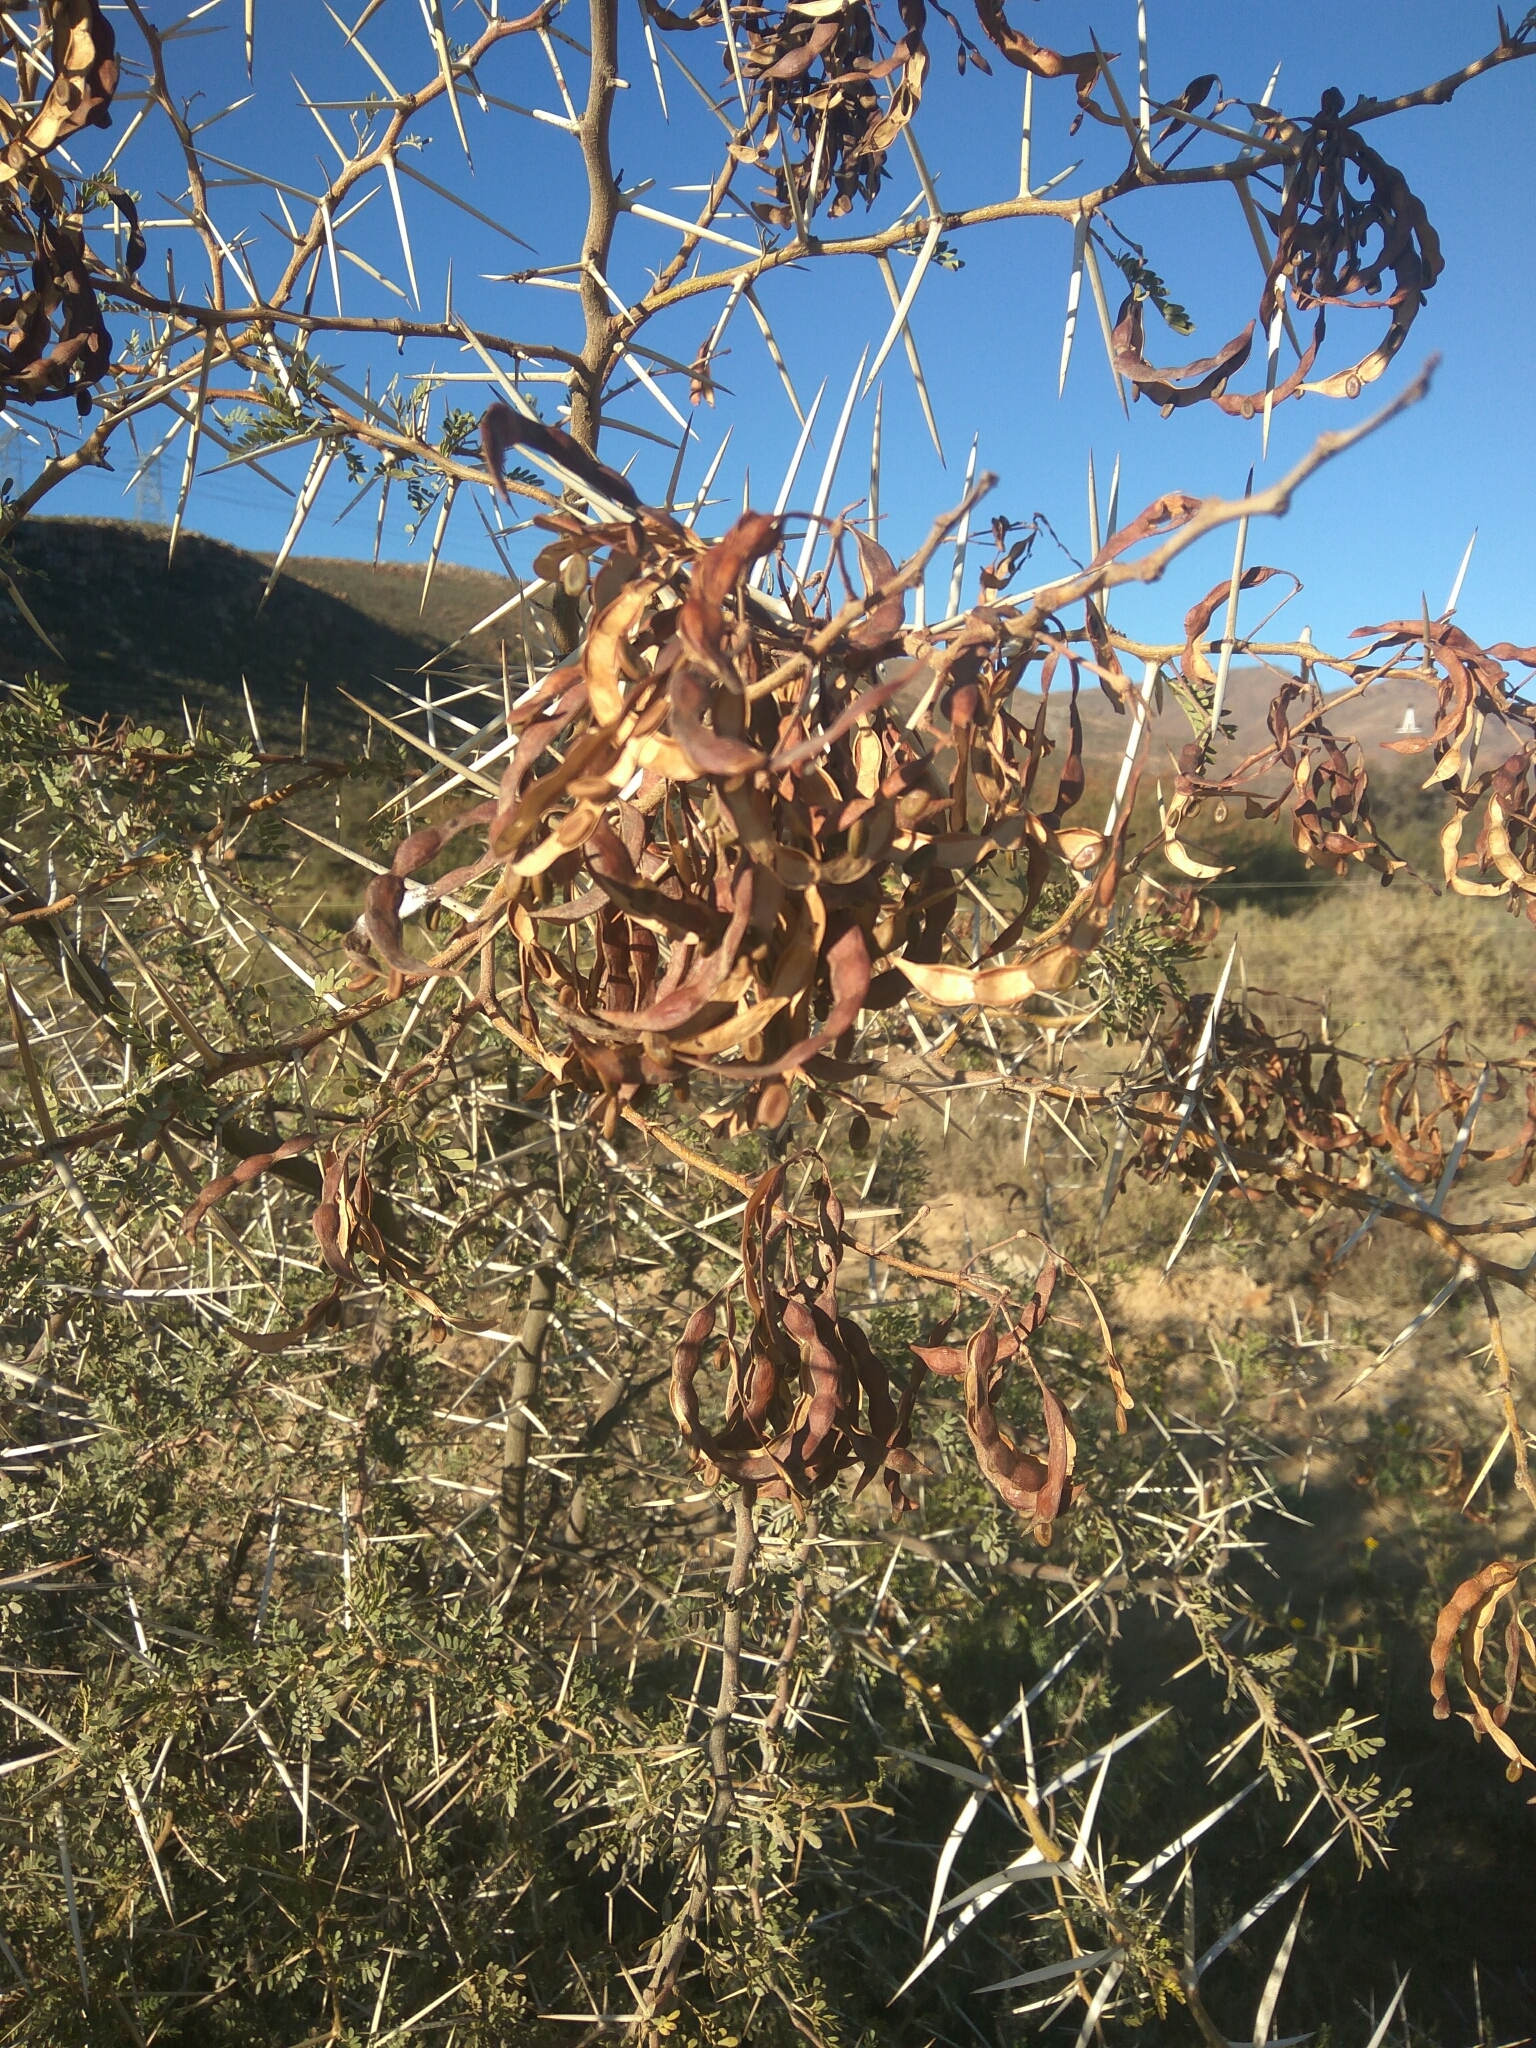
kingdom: Plantae
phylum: Tracheophyta
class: Magnoliopsida
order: Fabales
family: Fabaceae
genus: Vachellia
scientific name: Vachellia karroo
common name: Sweet thorn
